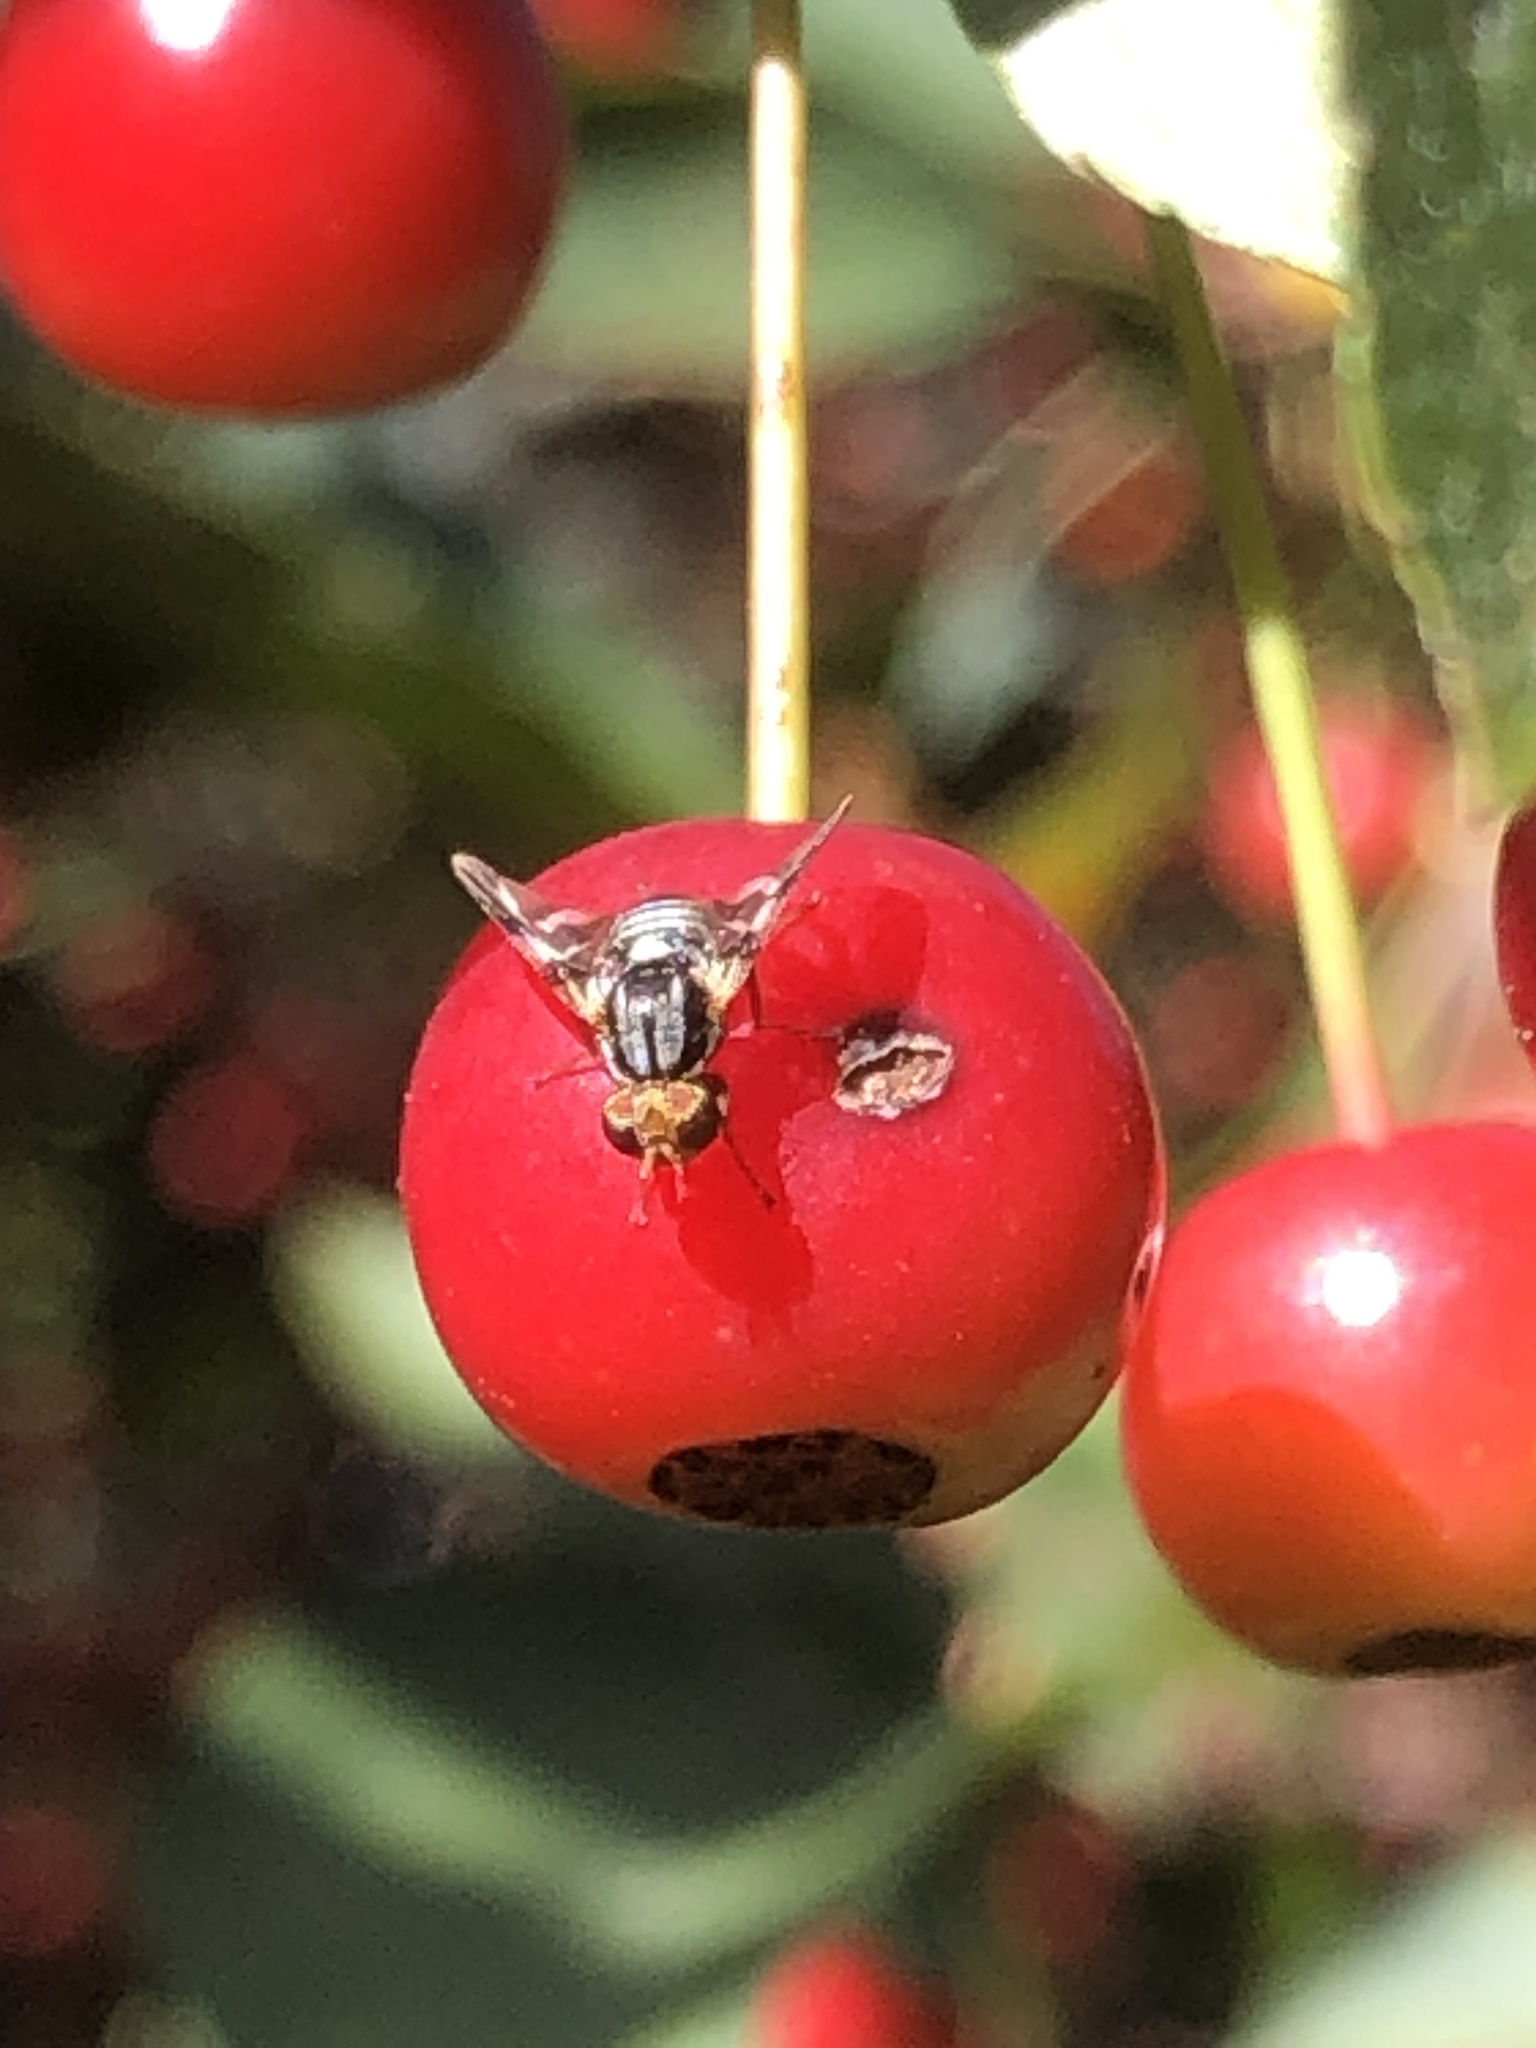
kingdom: Animalia
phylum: Arthropoda
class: Insecta
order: Diptera
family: Tephritidae
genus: Rhagoletis
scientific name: Rhagoletis pomonella
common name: Apple maggot
